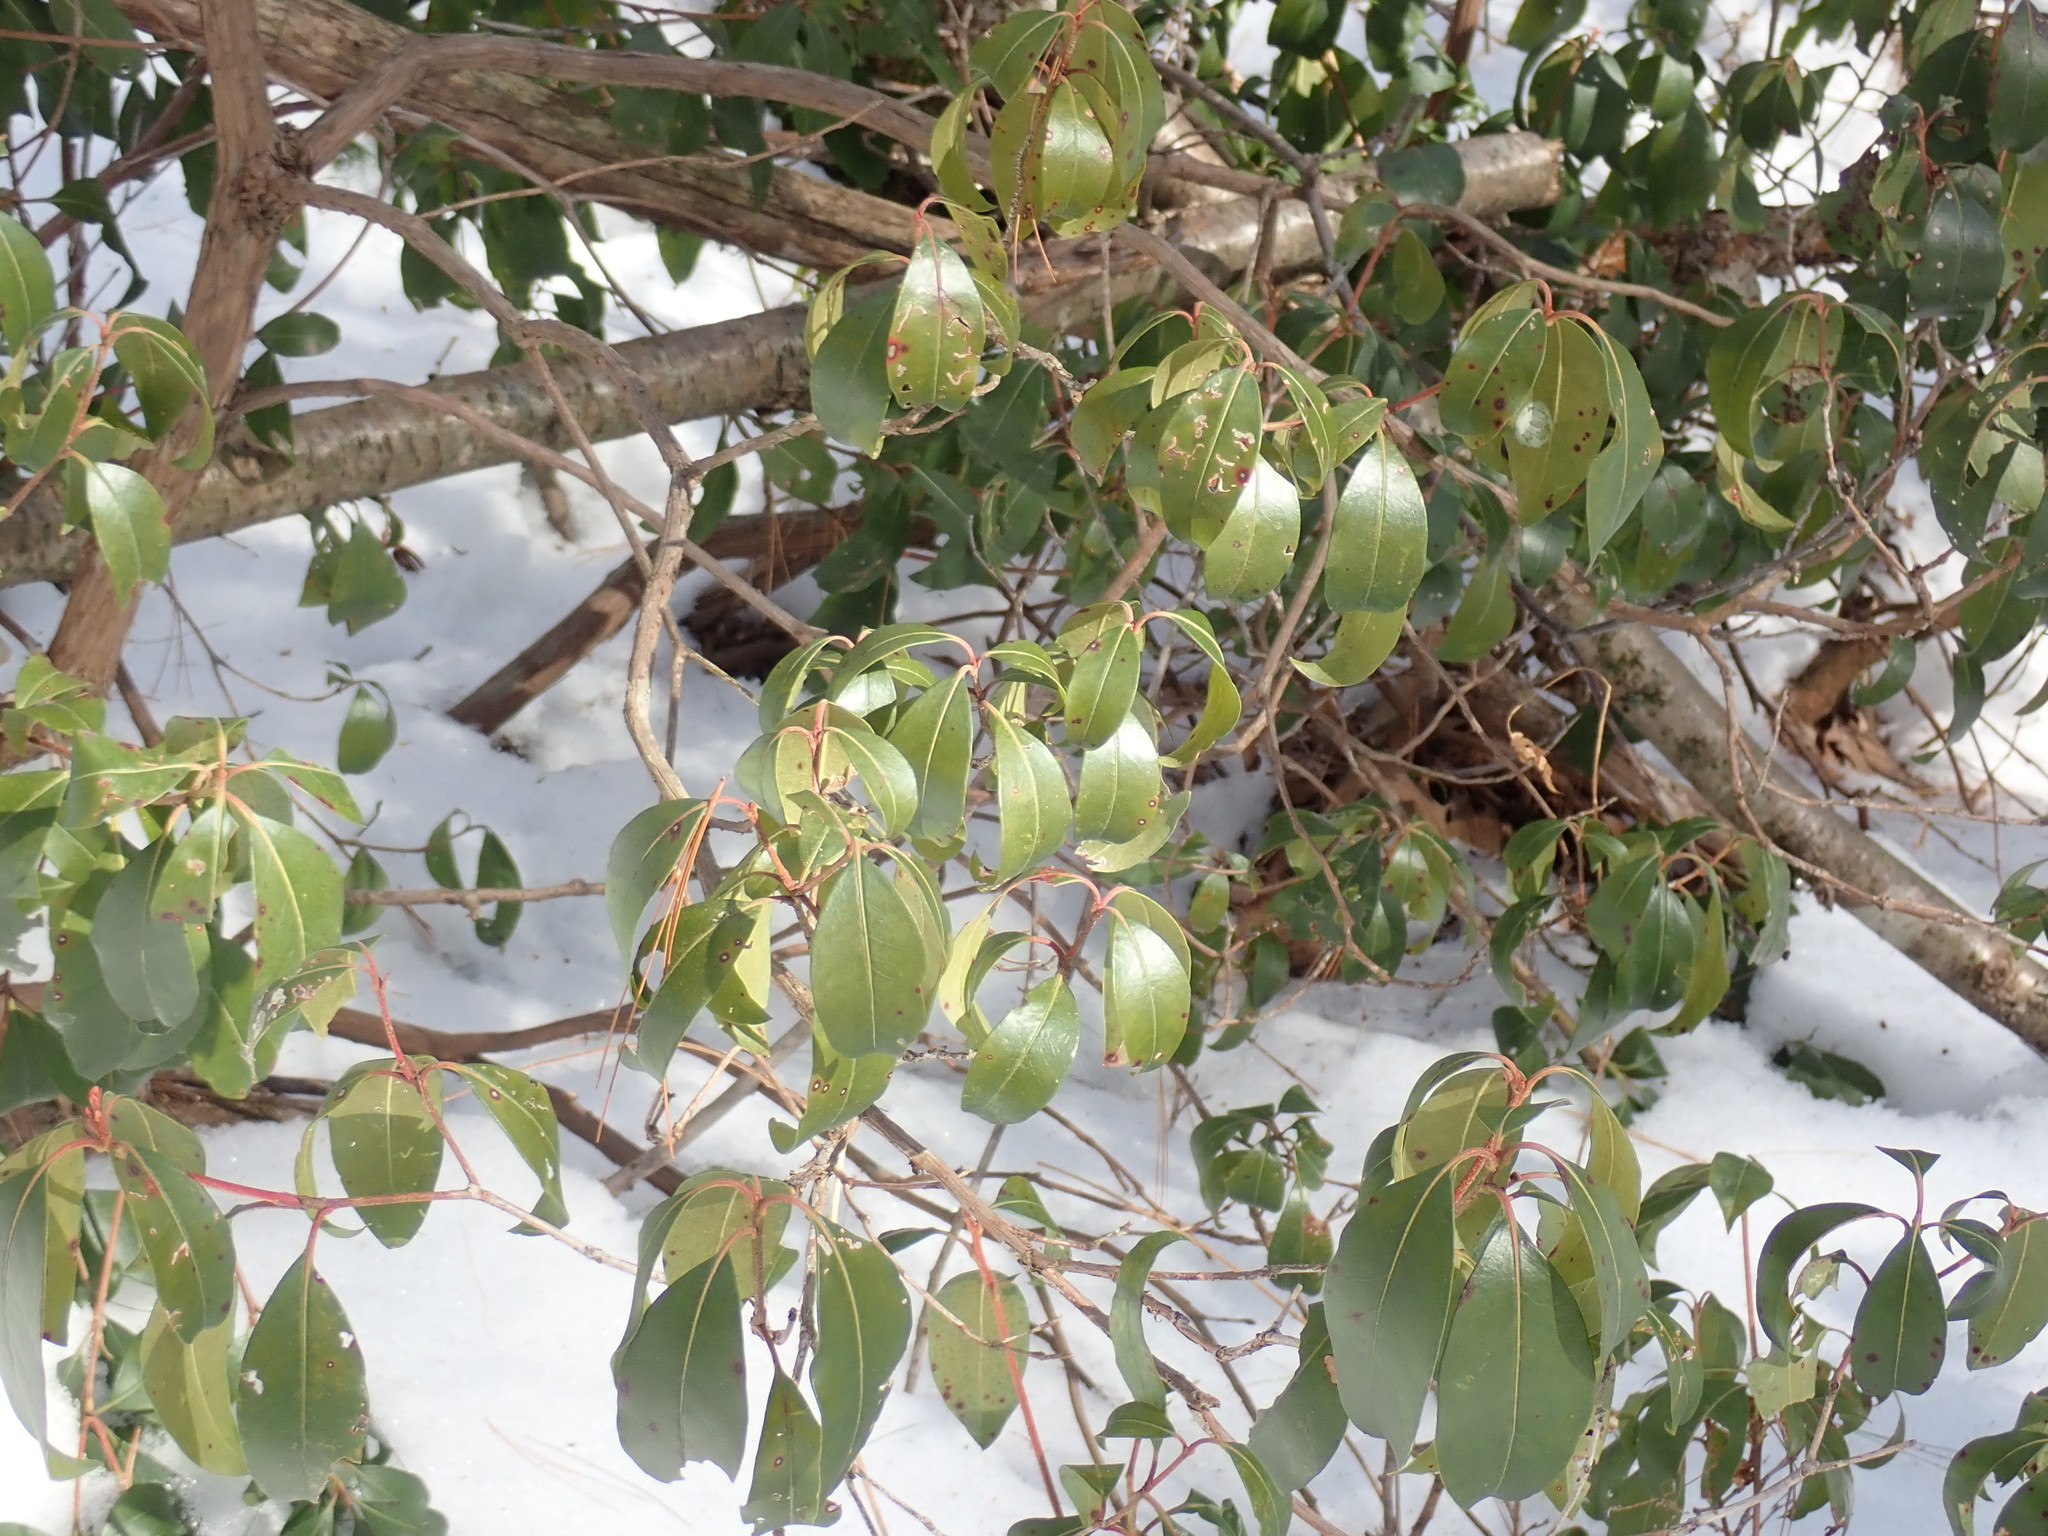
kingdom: Plantae
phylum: Tracheophyta
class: Magnoliopsida
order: Ericales
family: Ericaceae
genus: Kalmia
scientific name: Kalmia latifolia
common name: Mountain-laurel
